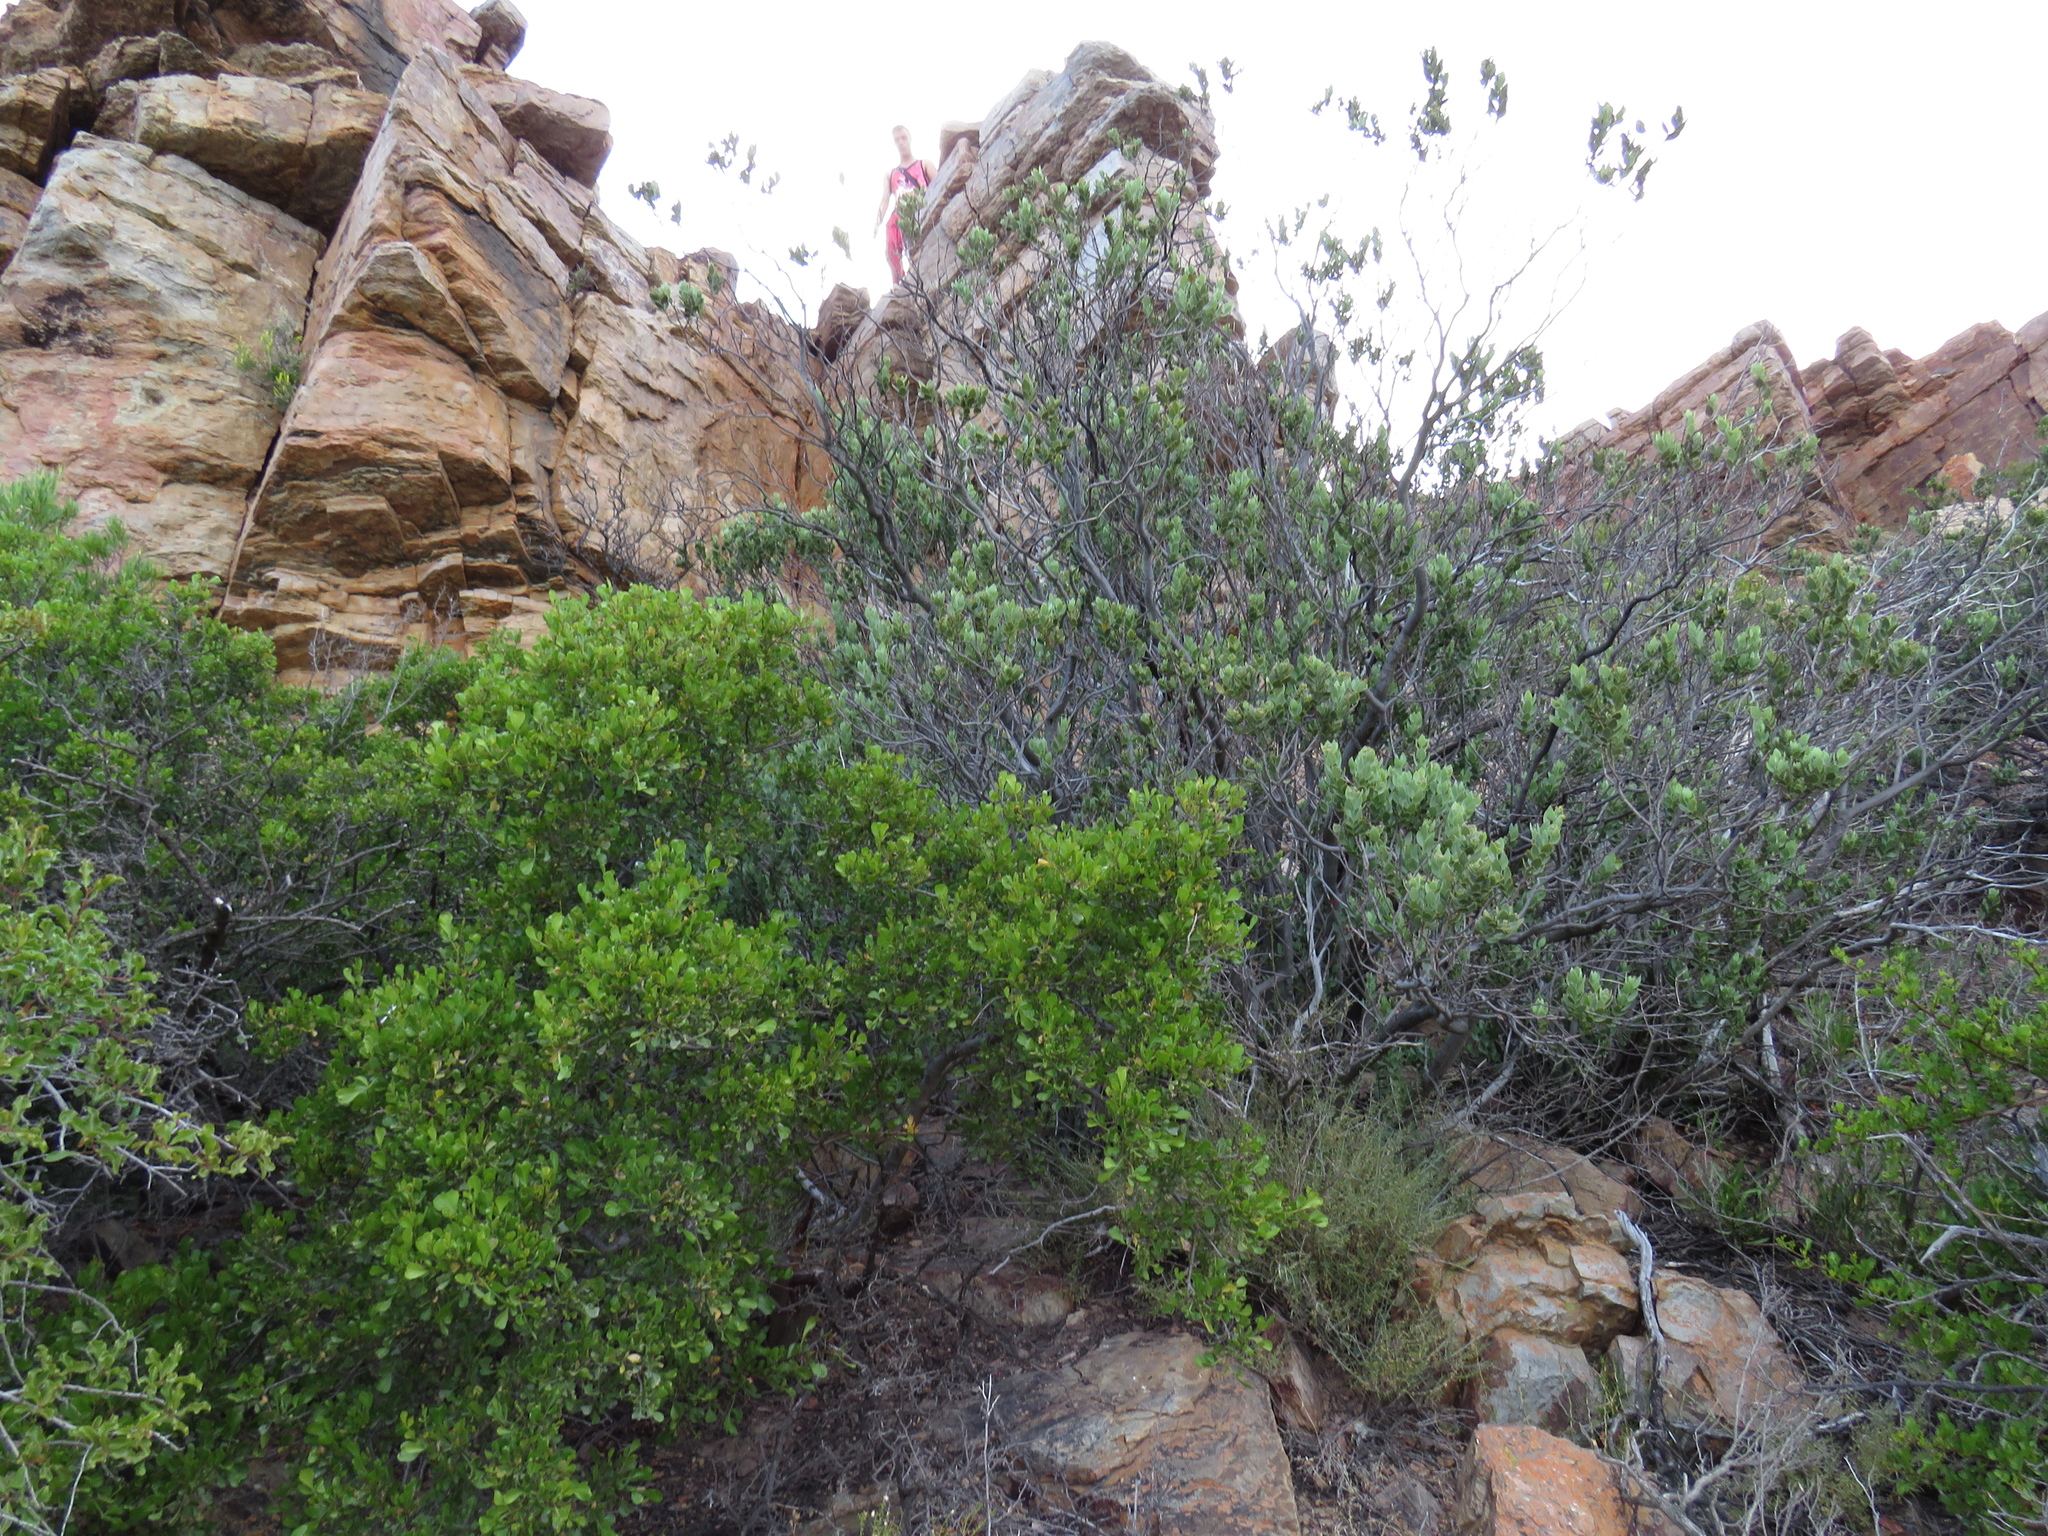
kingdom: Plantae
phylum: Tracheophyta
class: Magnoliopsida
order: Santalales
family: Santalaceae
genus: Osyris
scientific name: Osyris compressa
